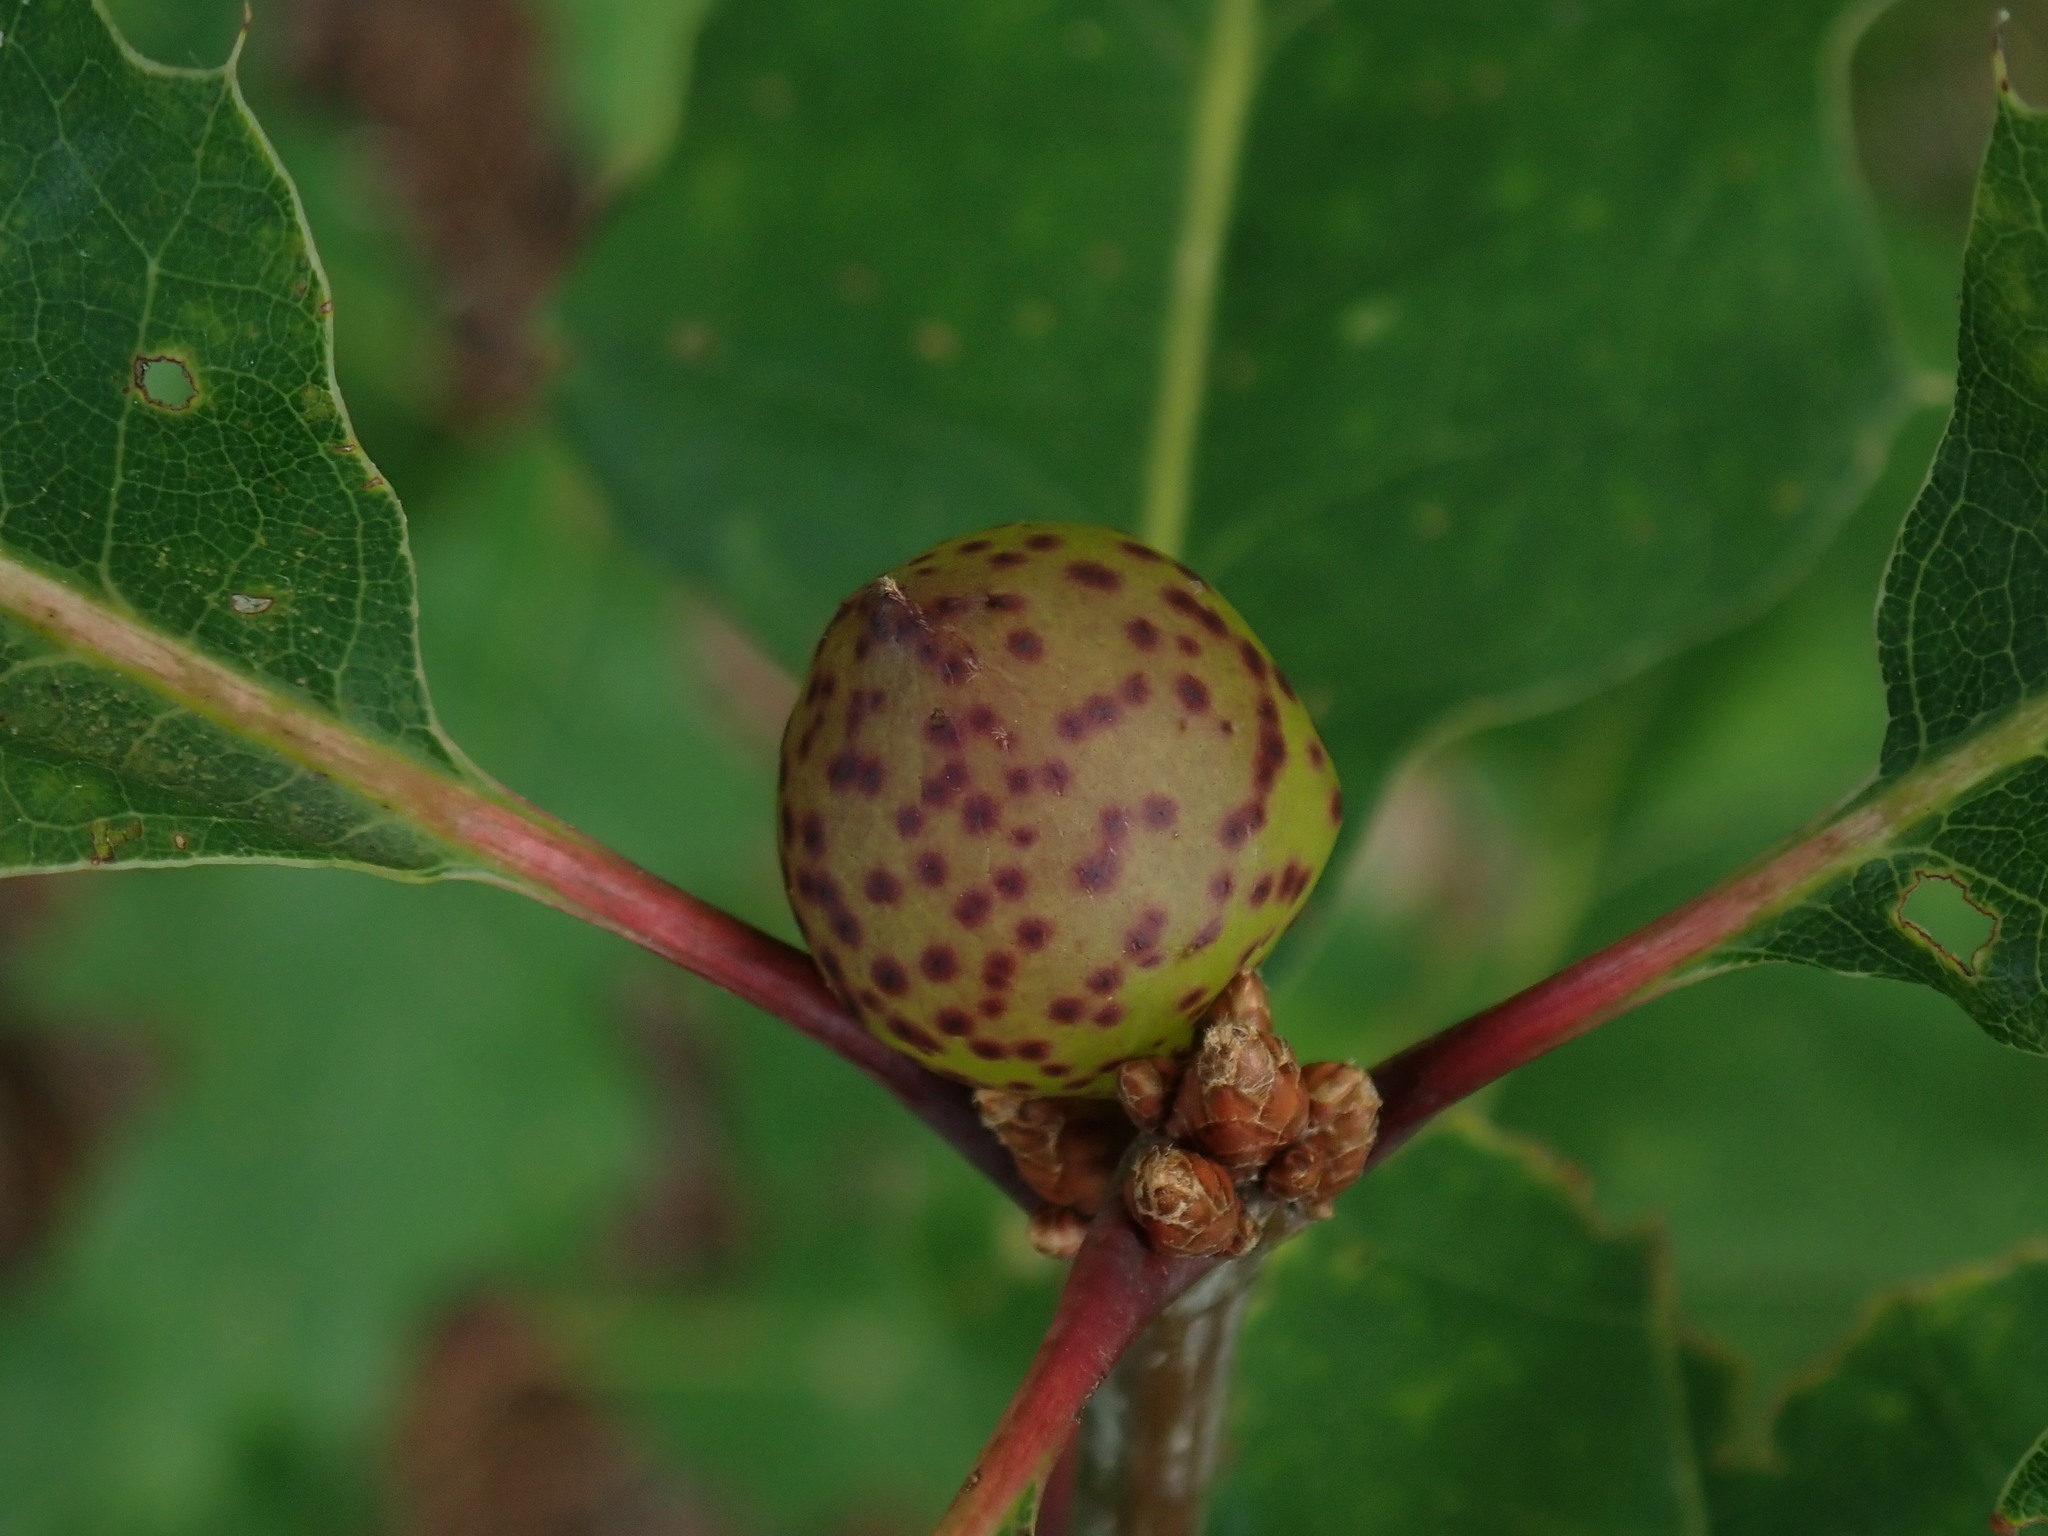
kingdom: Animalia
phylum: Arthropoda
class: Insecta
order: Hymenoptera
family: Cynipidae
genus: Amphibolips
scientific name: Amphibolips
